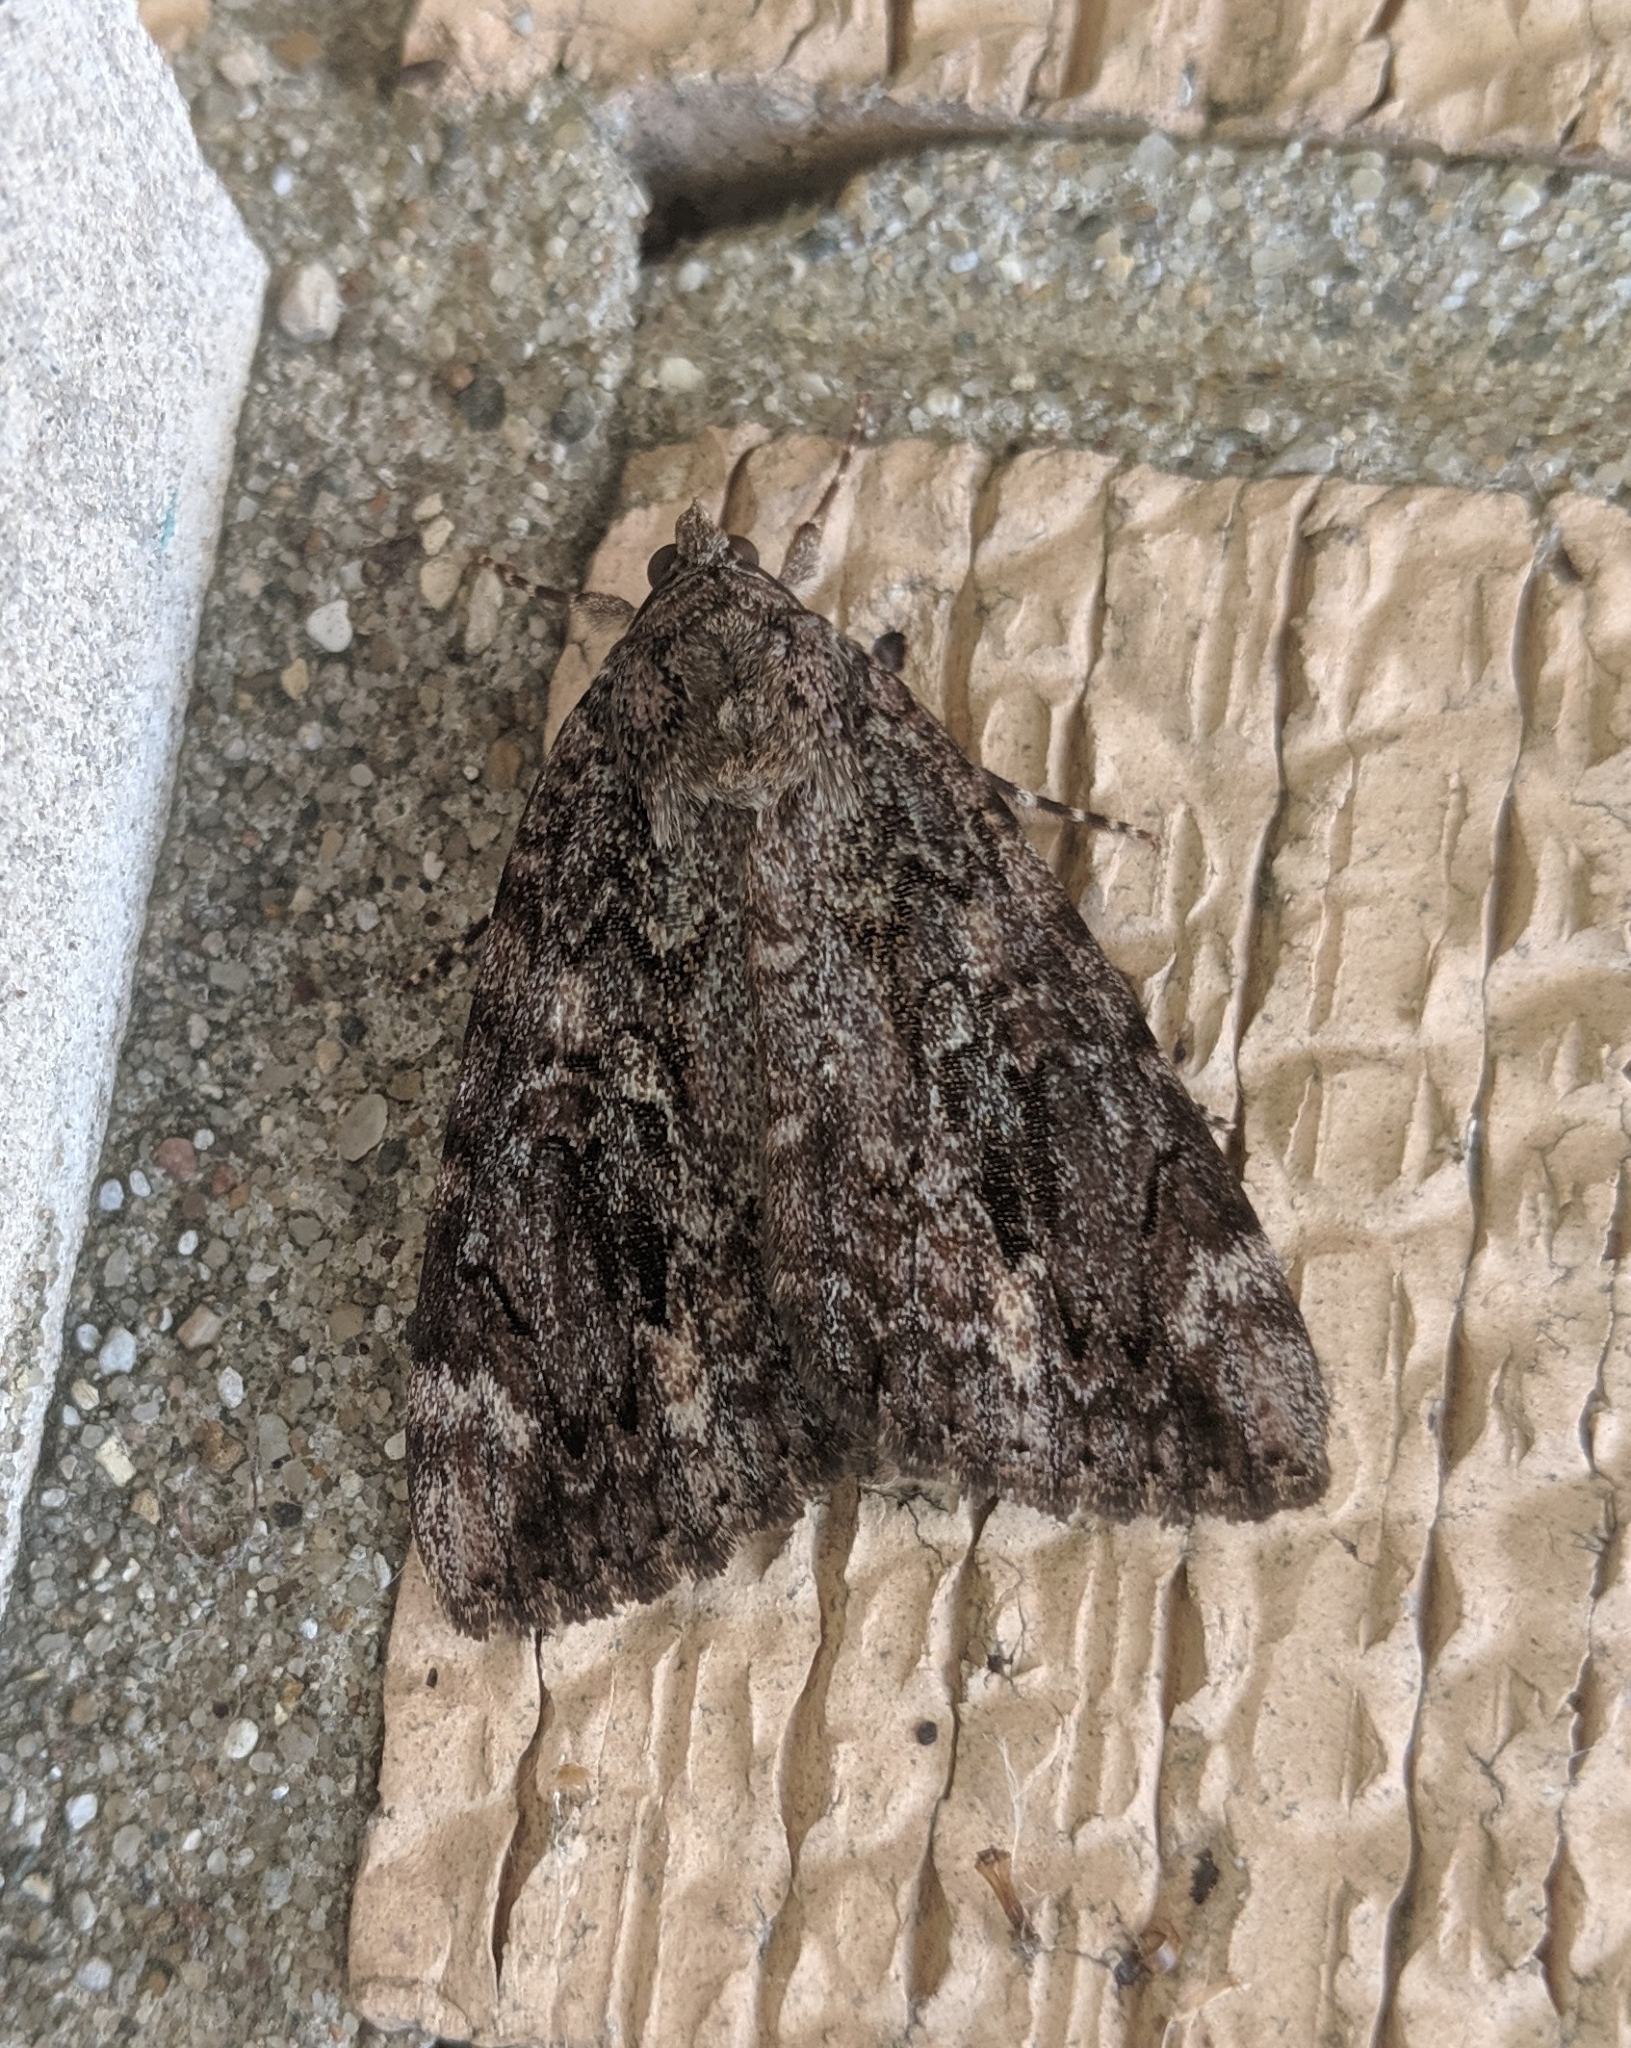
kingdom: Animalia
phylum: Arthropoda
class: Insecta
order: Lepidoptera
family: Erebidae
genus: Catocala
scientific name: Catocala innubens
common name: Betrothed underwing
